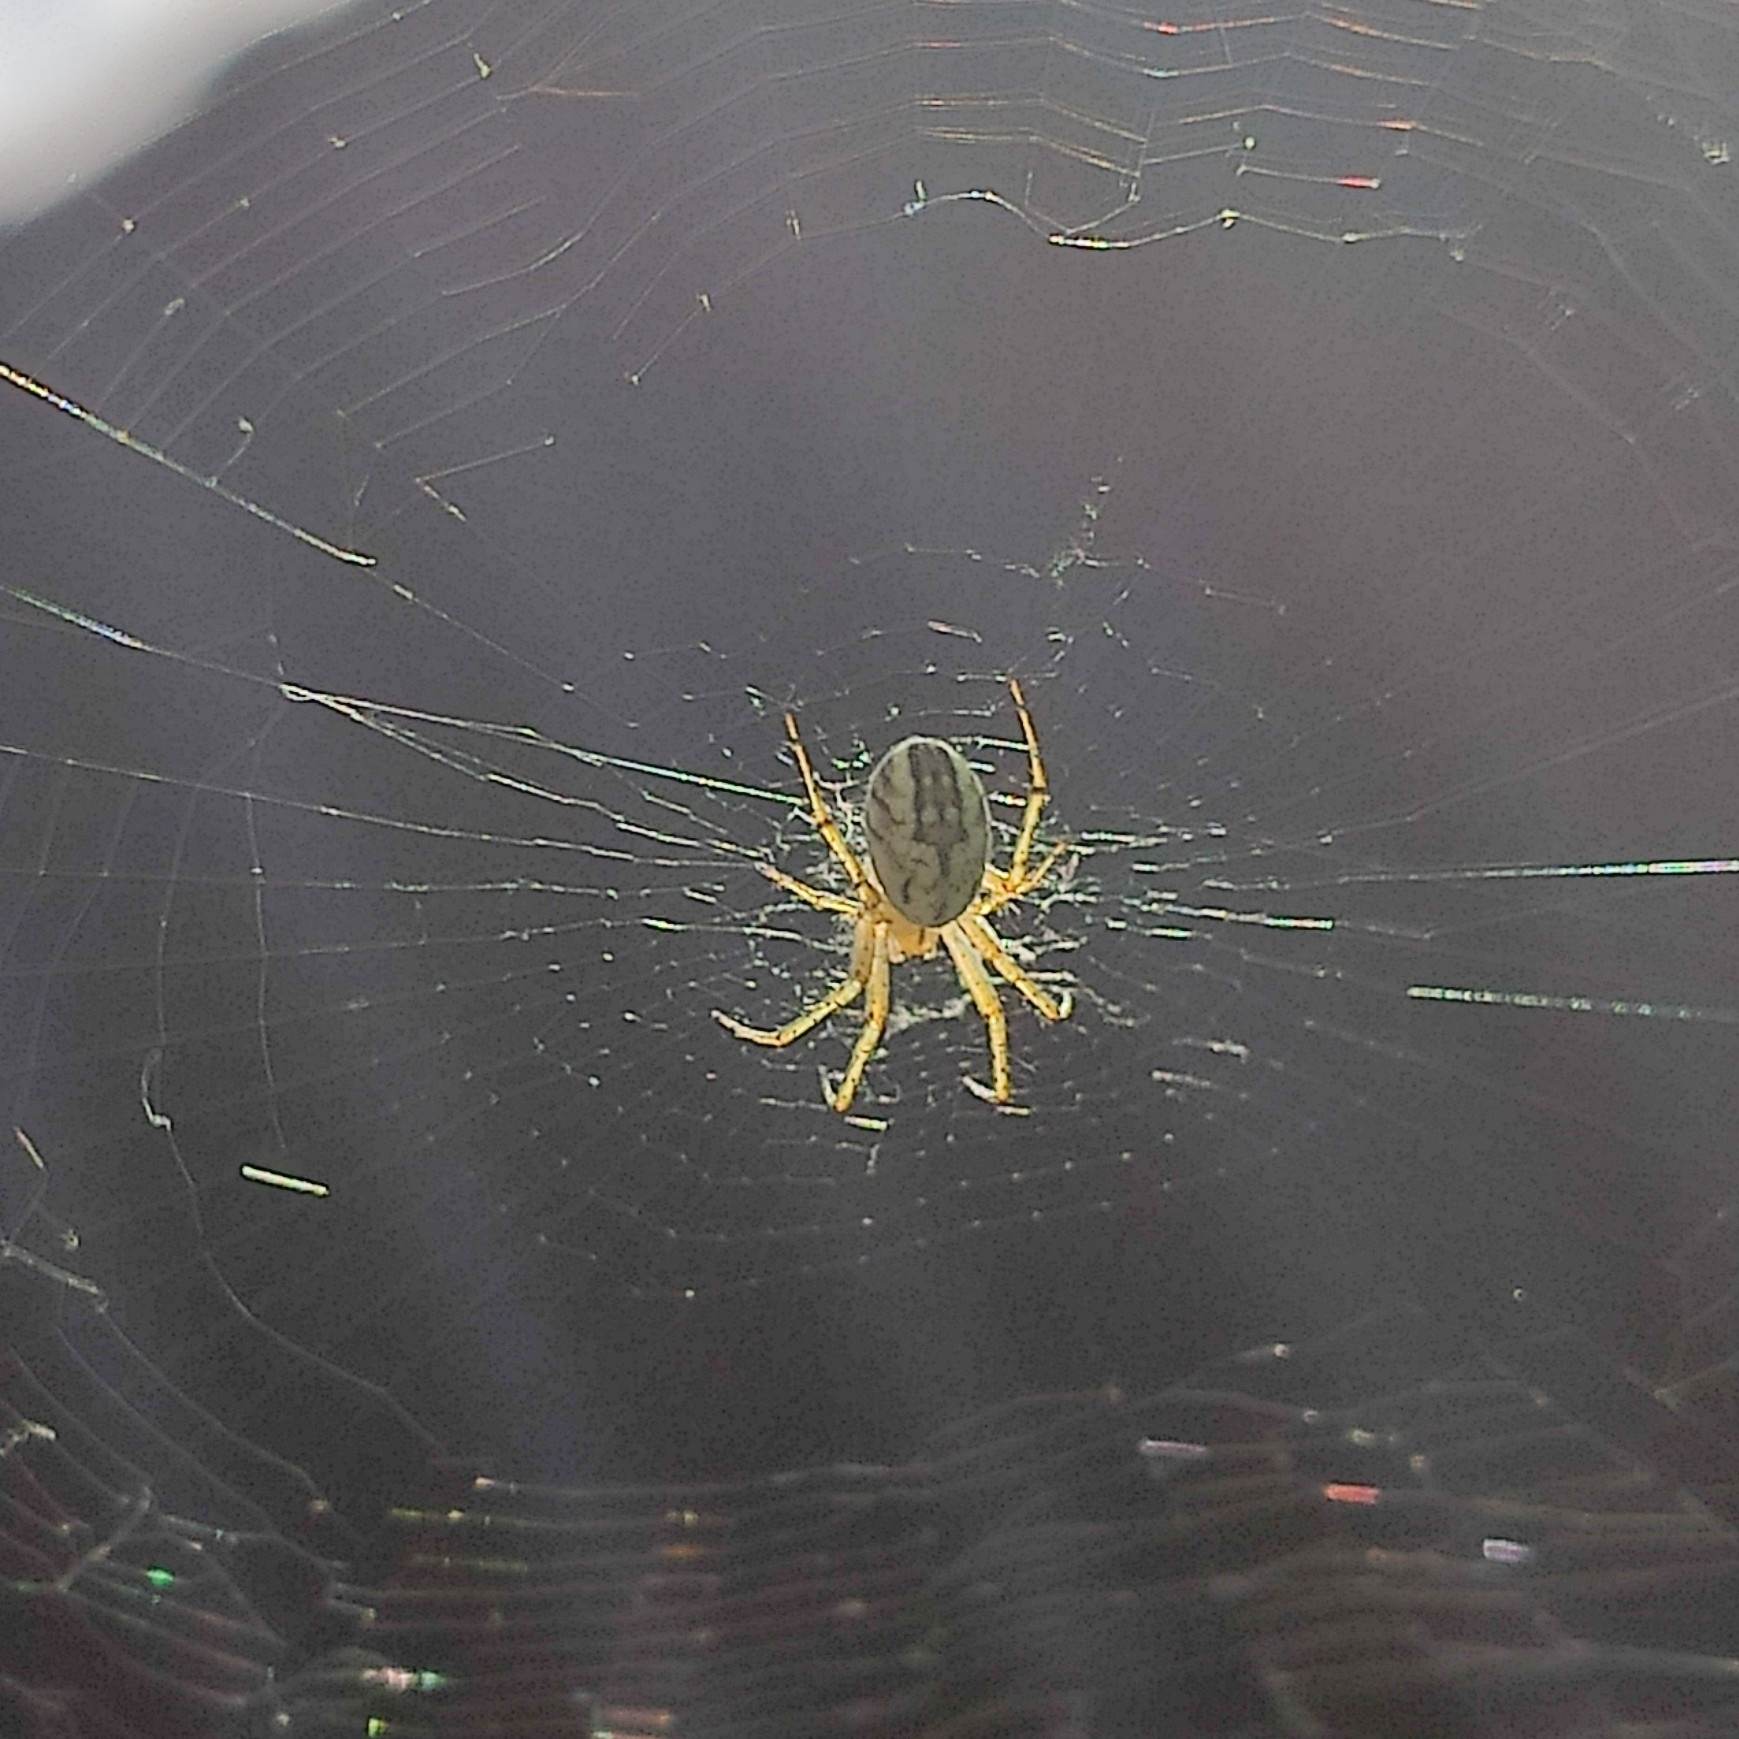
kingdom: Animalia
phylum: Arthropoda
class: Arachnida
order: Araneae
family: Araneidae
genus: Mangora
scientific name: Mangora acalypha
